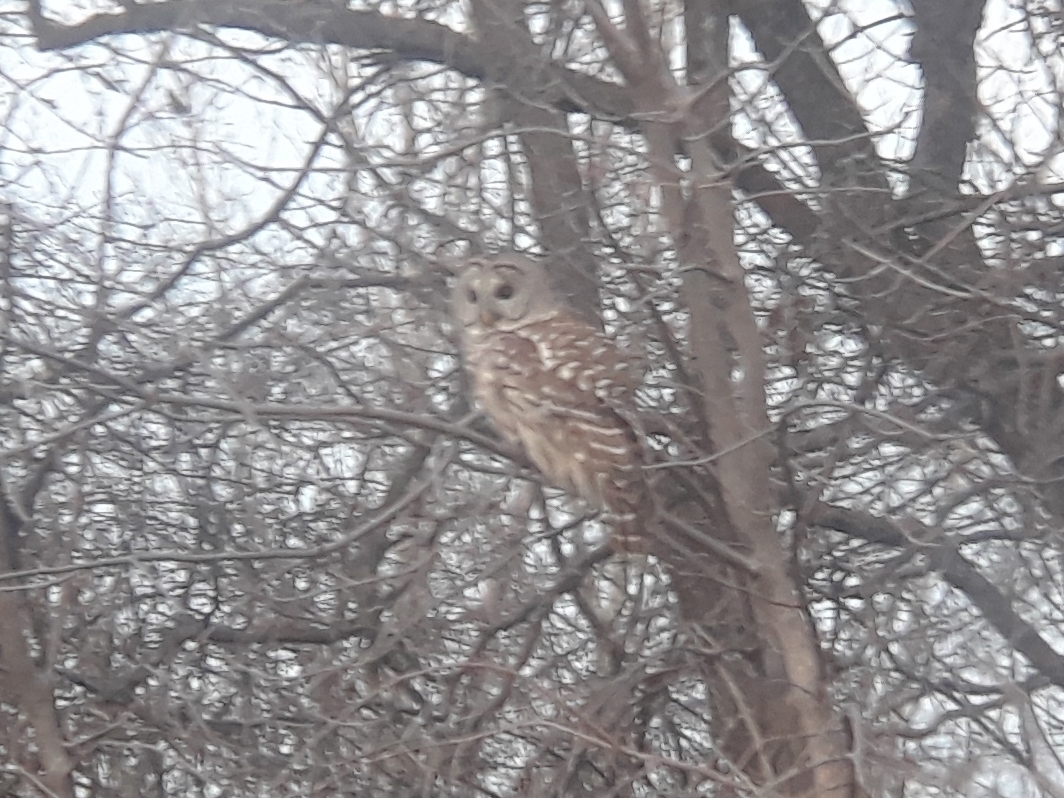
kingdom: Animalia
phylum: Chordata
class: Aves
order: Strigiformes
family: Strigidae
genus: Strix
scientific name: Strix varia
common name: Barred owl
